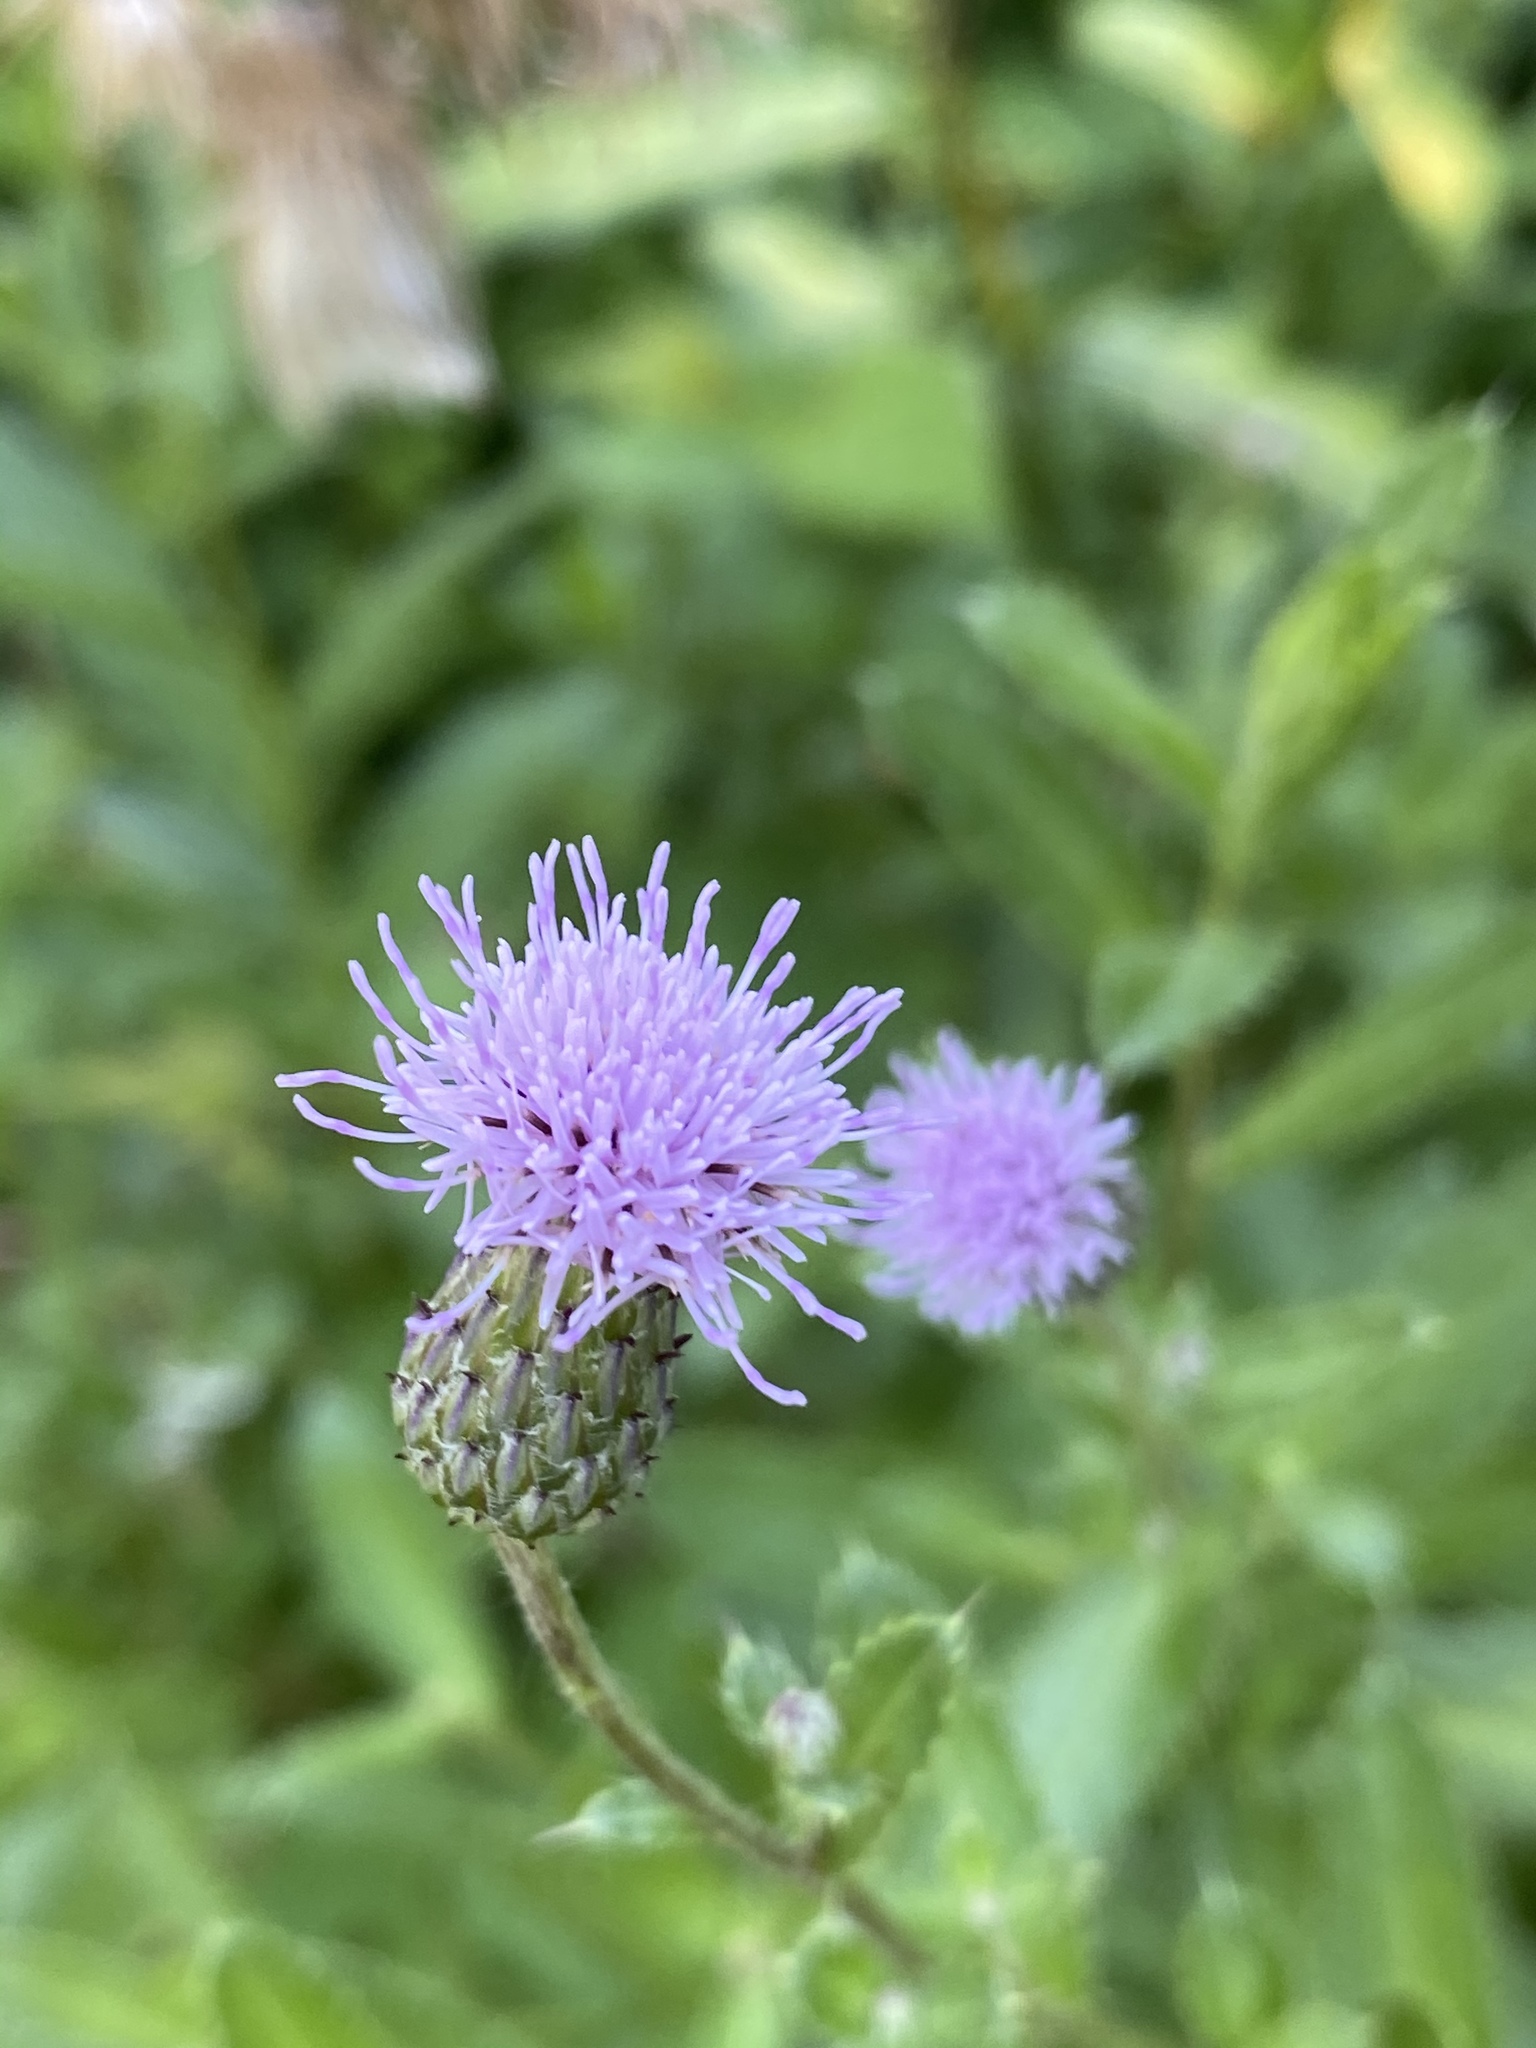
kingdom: Plantae
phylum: Tracheophyta
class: Magnoliopsida
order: Asterales
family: Asteraceae
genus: Cirsium
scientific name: Cirsium arvense
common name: Creeping thistle
